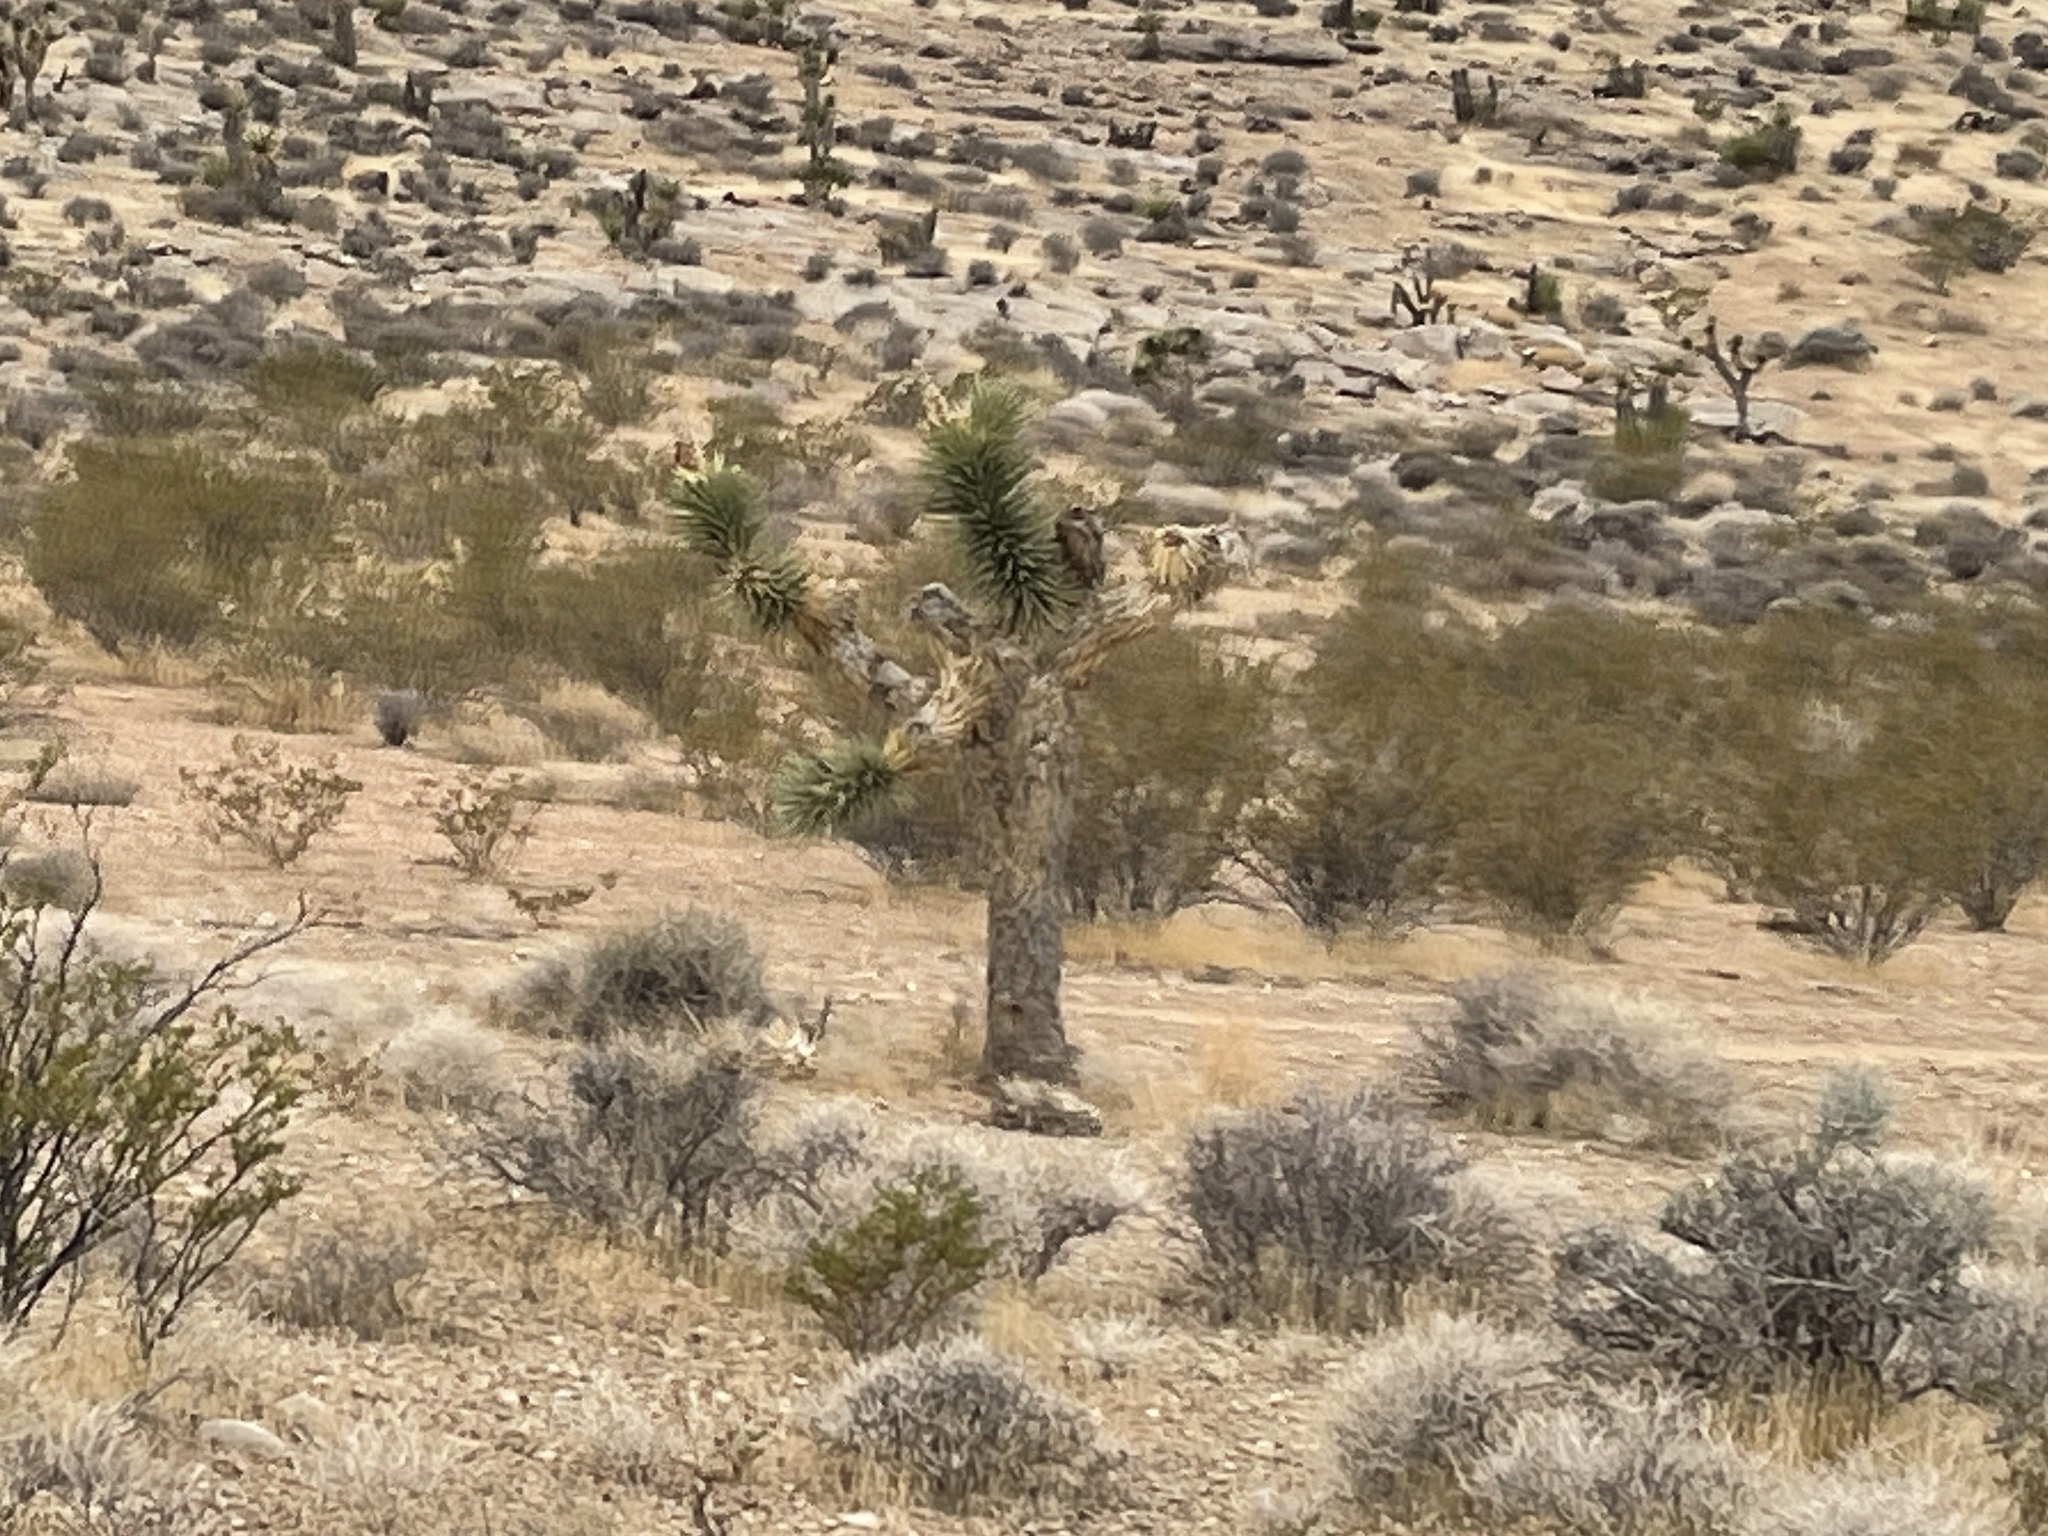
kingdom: Plantae
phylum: Tracheophyta
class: Liliopsida
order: Asparagales
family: Asparagaceae
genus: Yucca
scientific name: Yucca brevifolia
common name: Joshua tree
